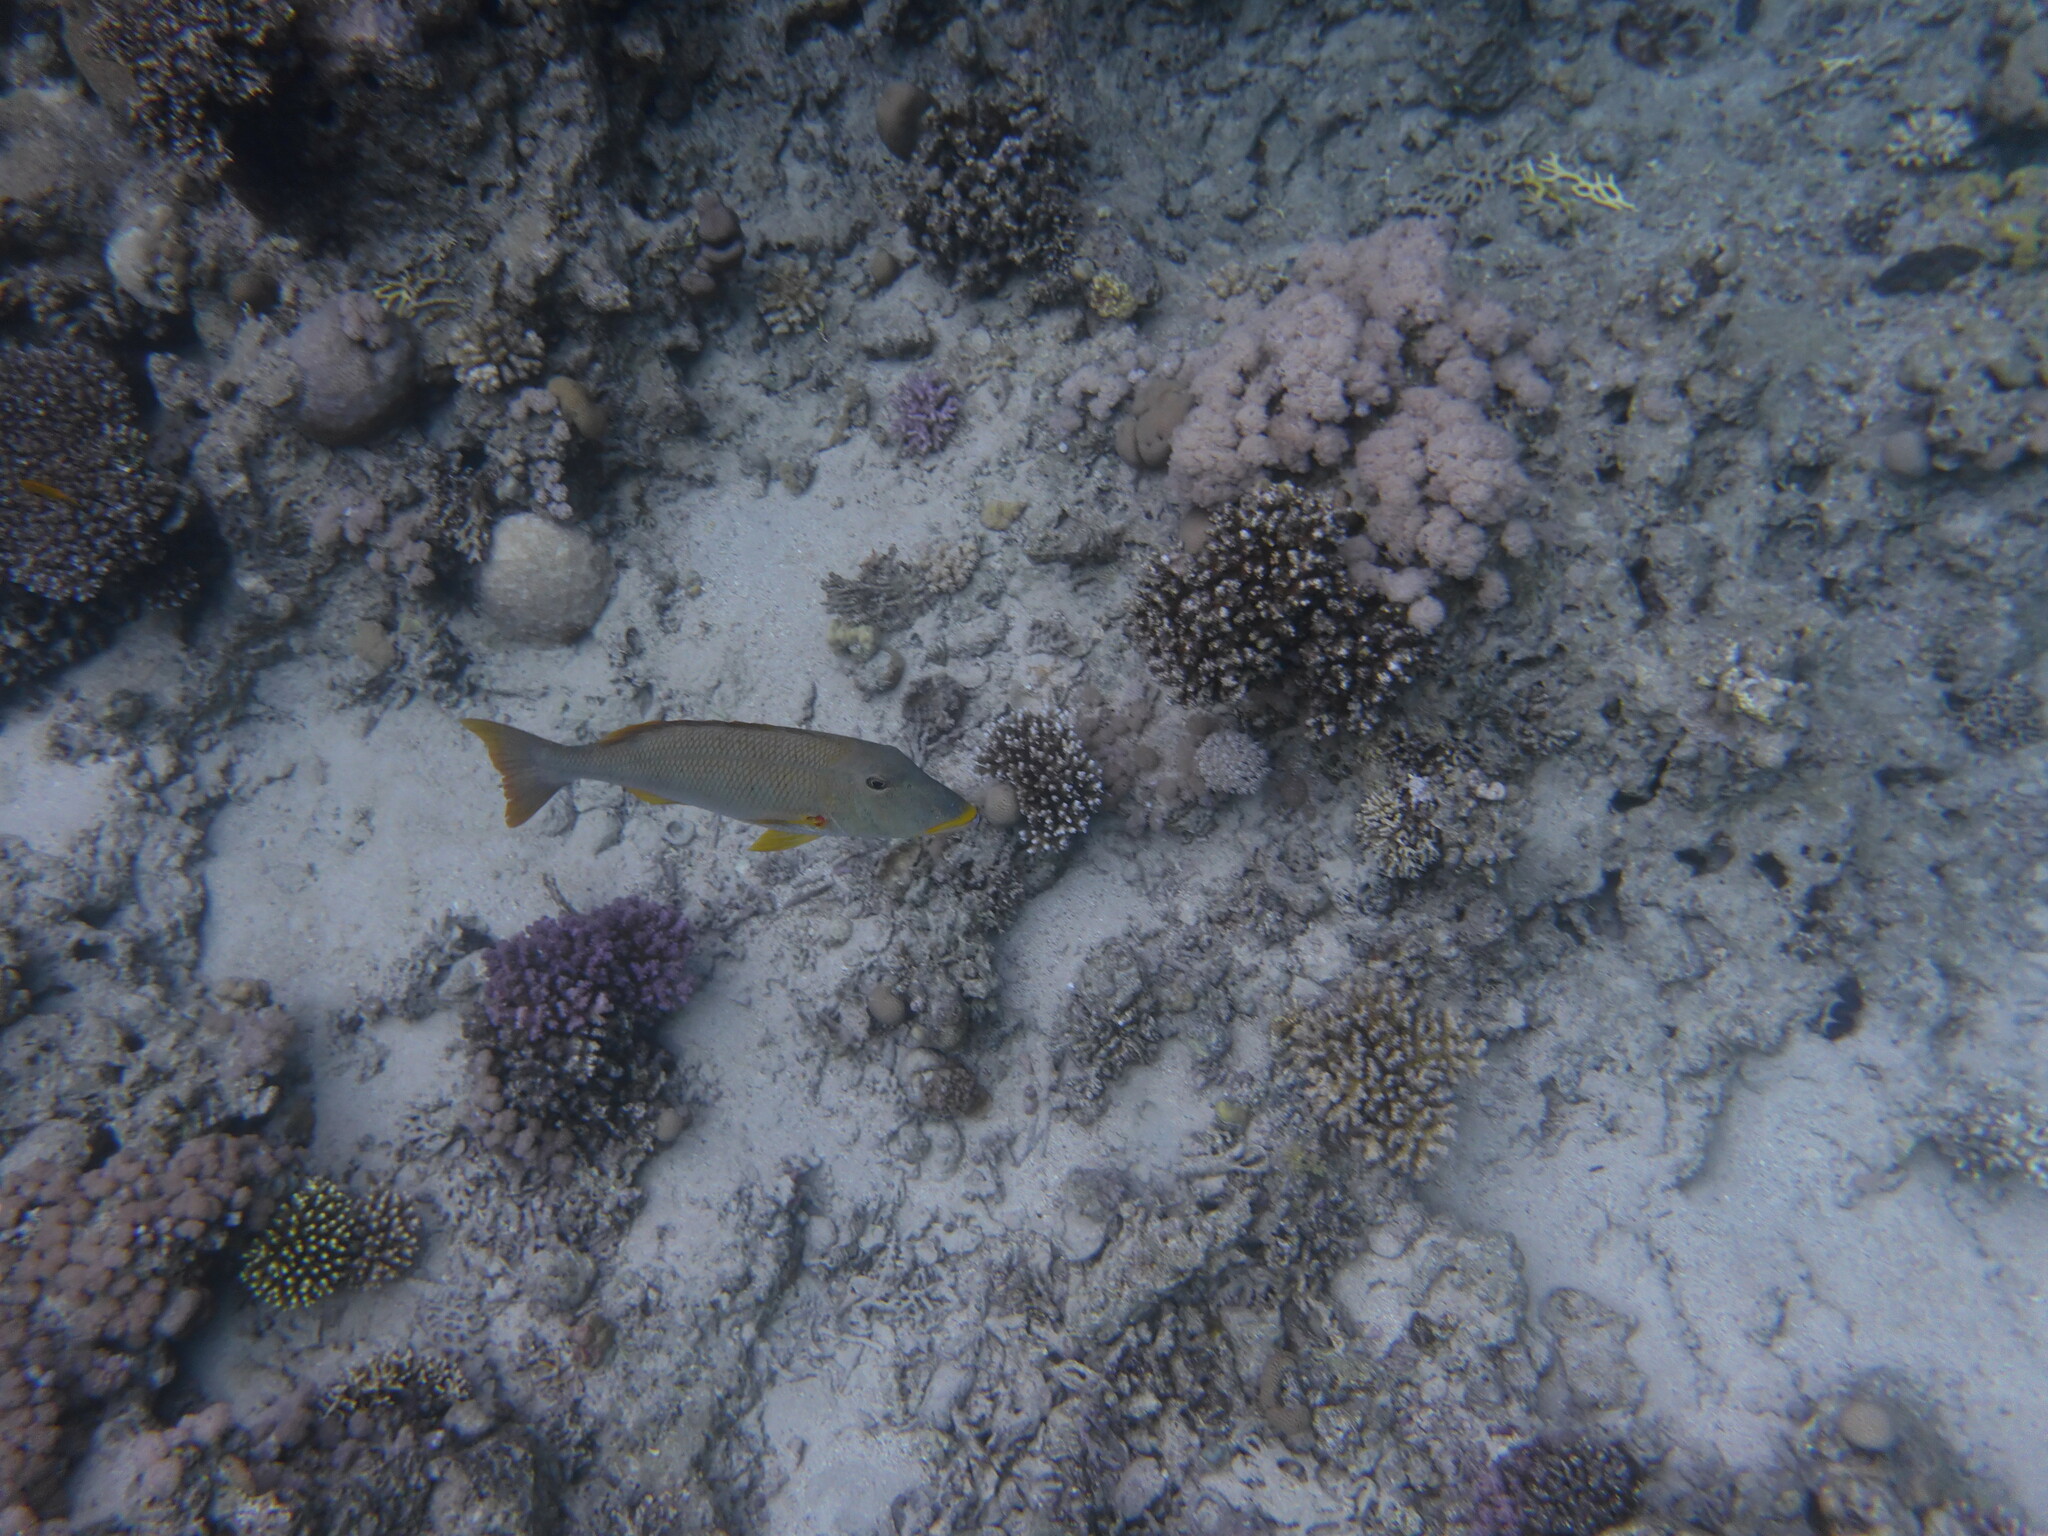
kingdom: Animalia
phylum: Chordata
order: Perciformes
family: Lethrinidae
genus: Lethrinus
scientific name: Lethrinus xanthochilus
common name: Yellowlip emperor
